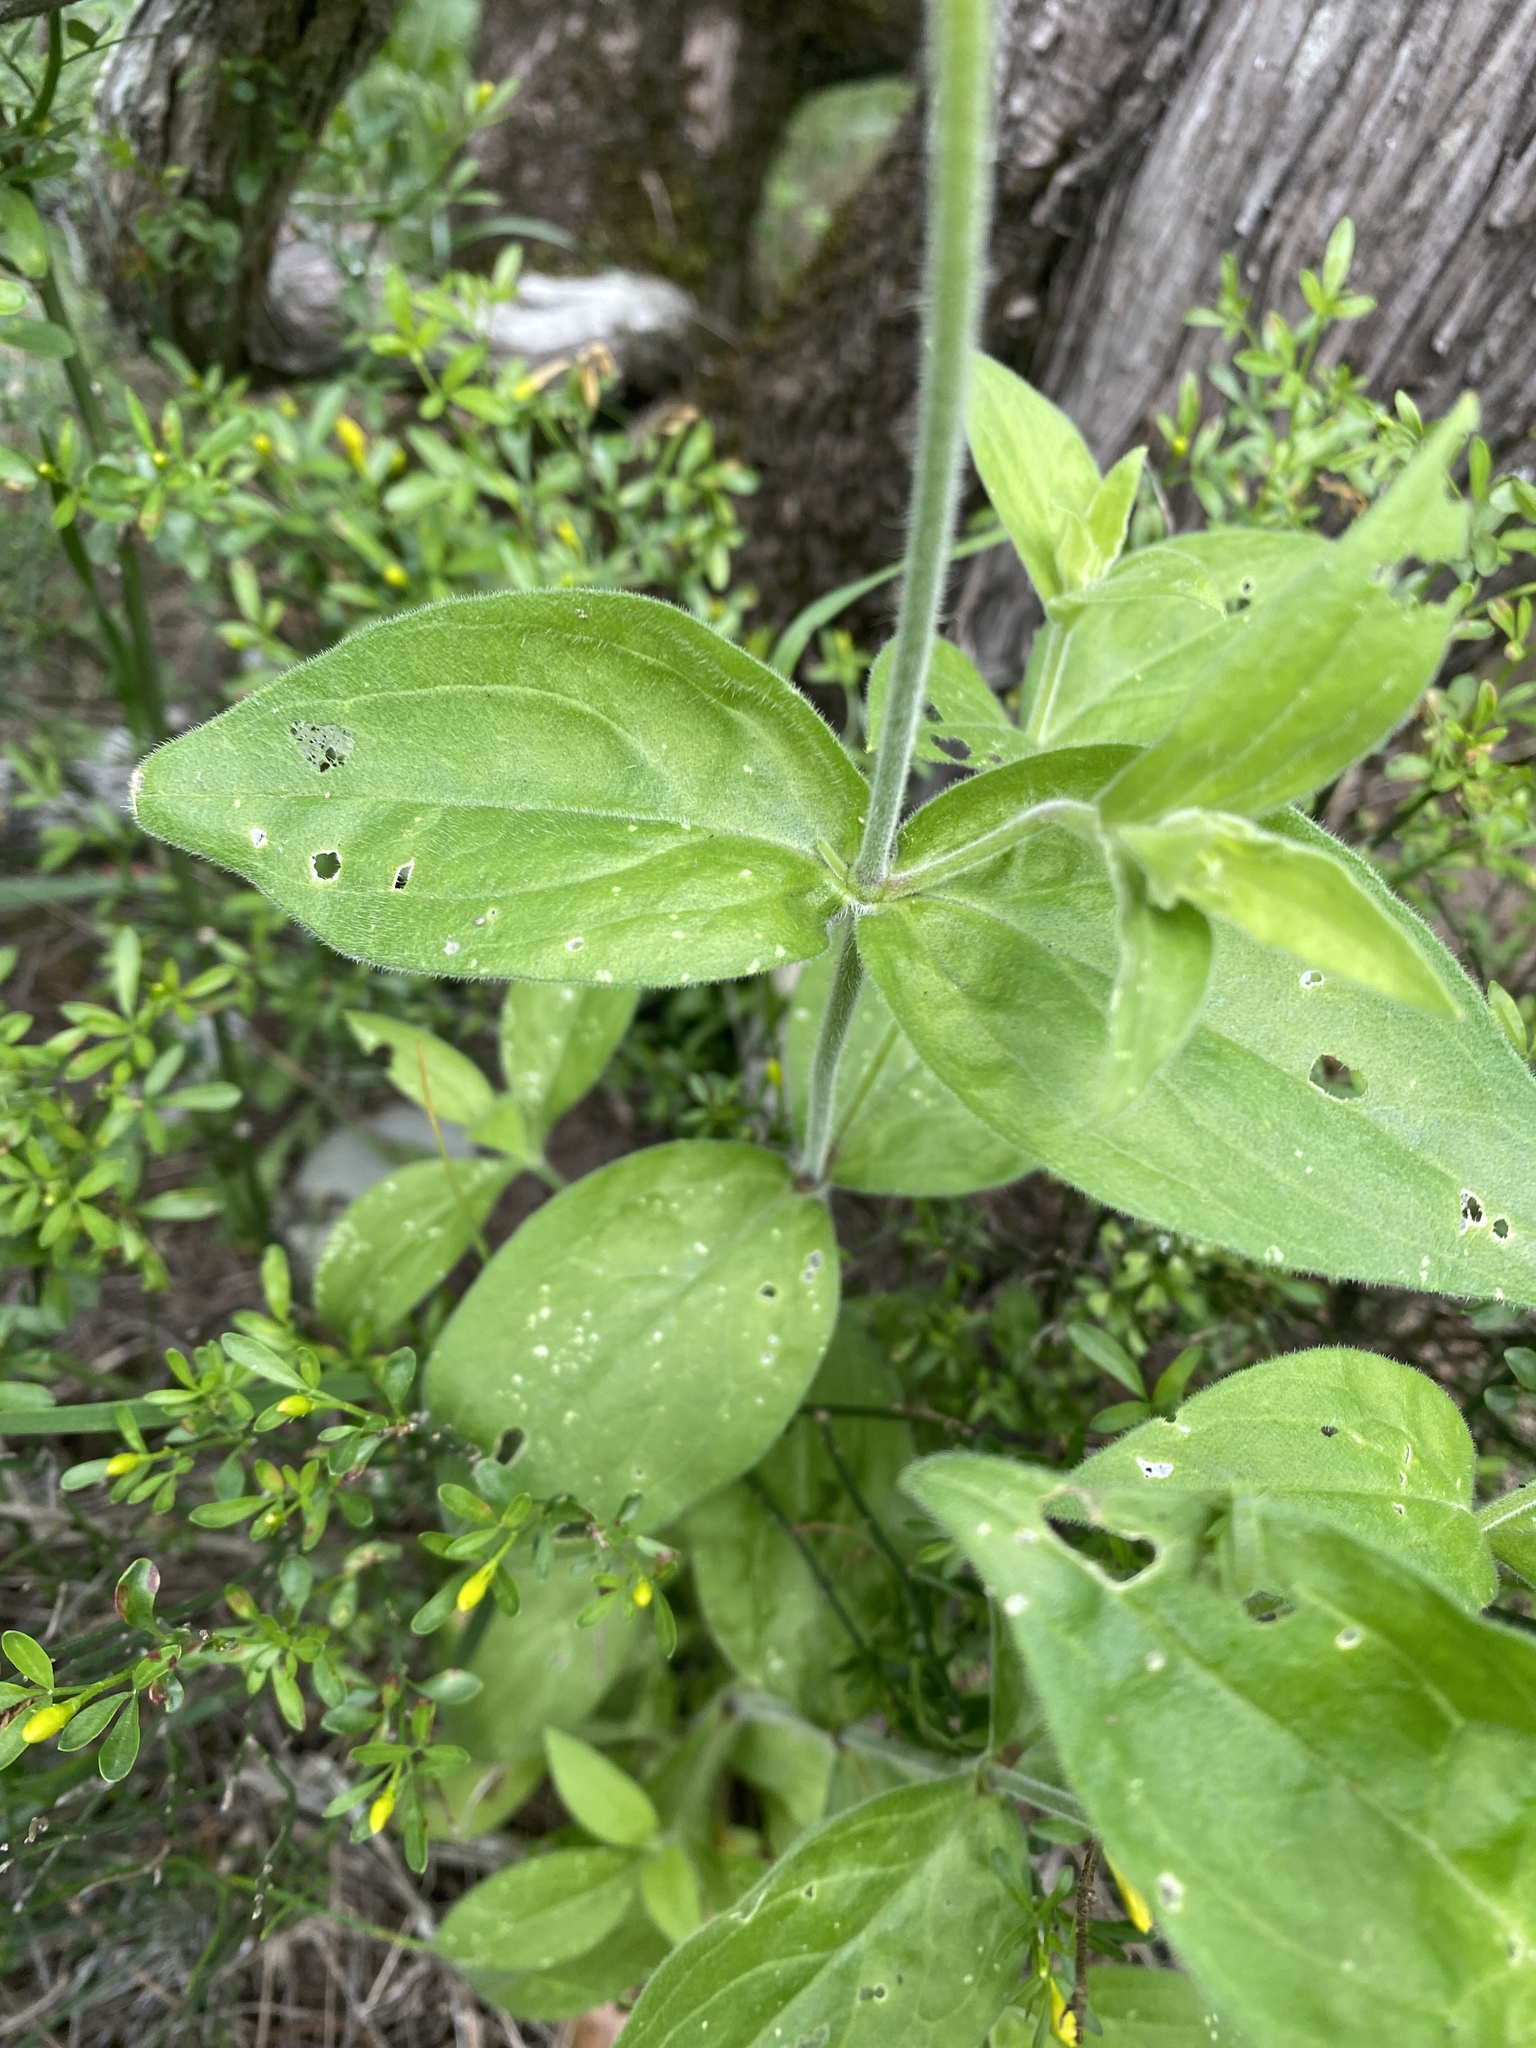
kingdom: Plantae
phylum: Tracheophyta
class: Magnoliopsida
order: Caryophyllales
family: Caryophyllaceae
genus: Silene
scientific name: Silene latifolia
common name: White campion
